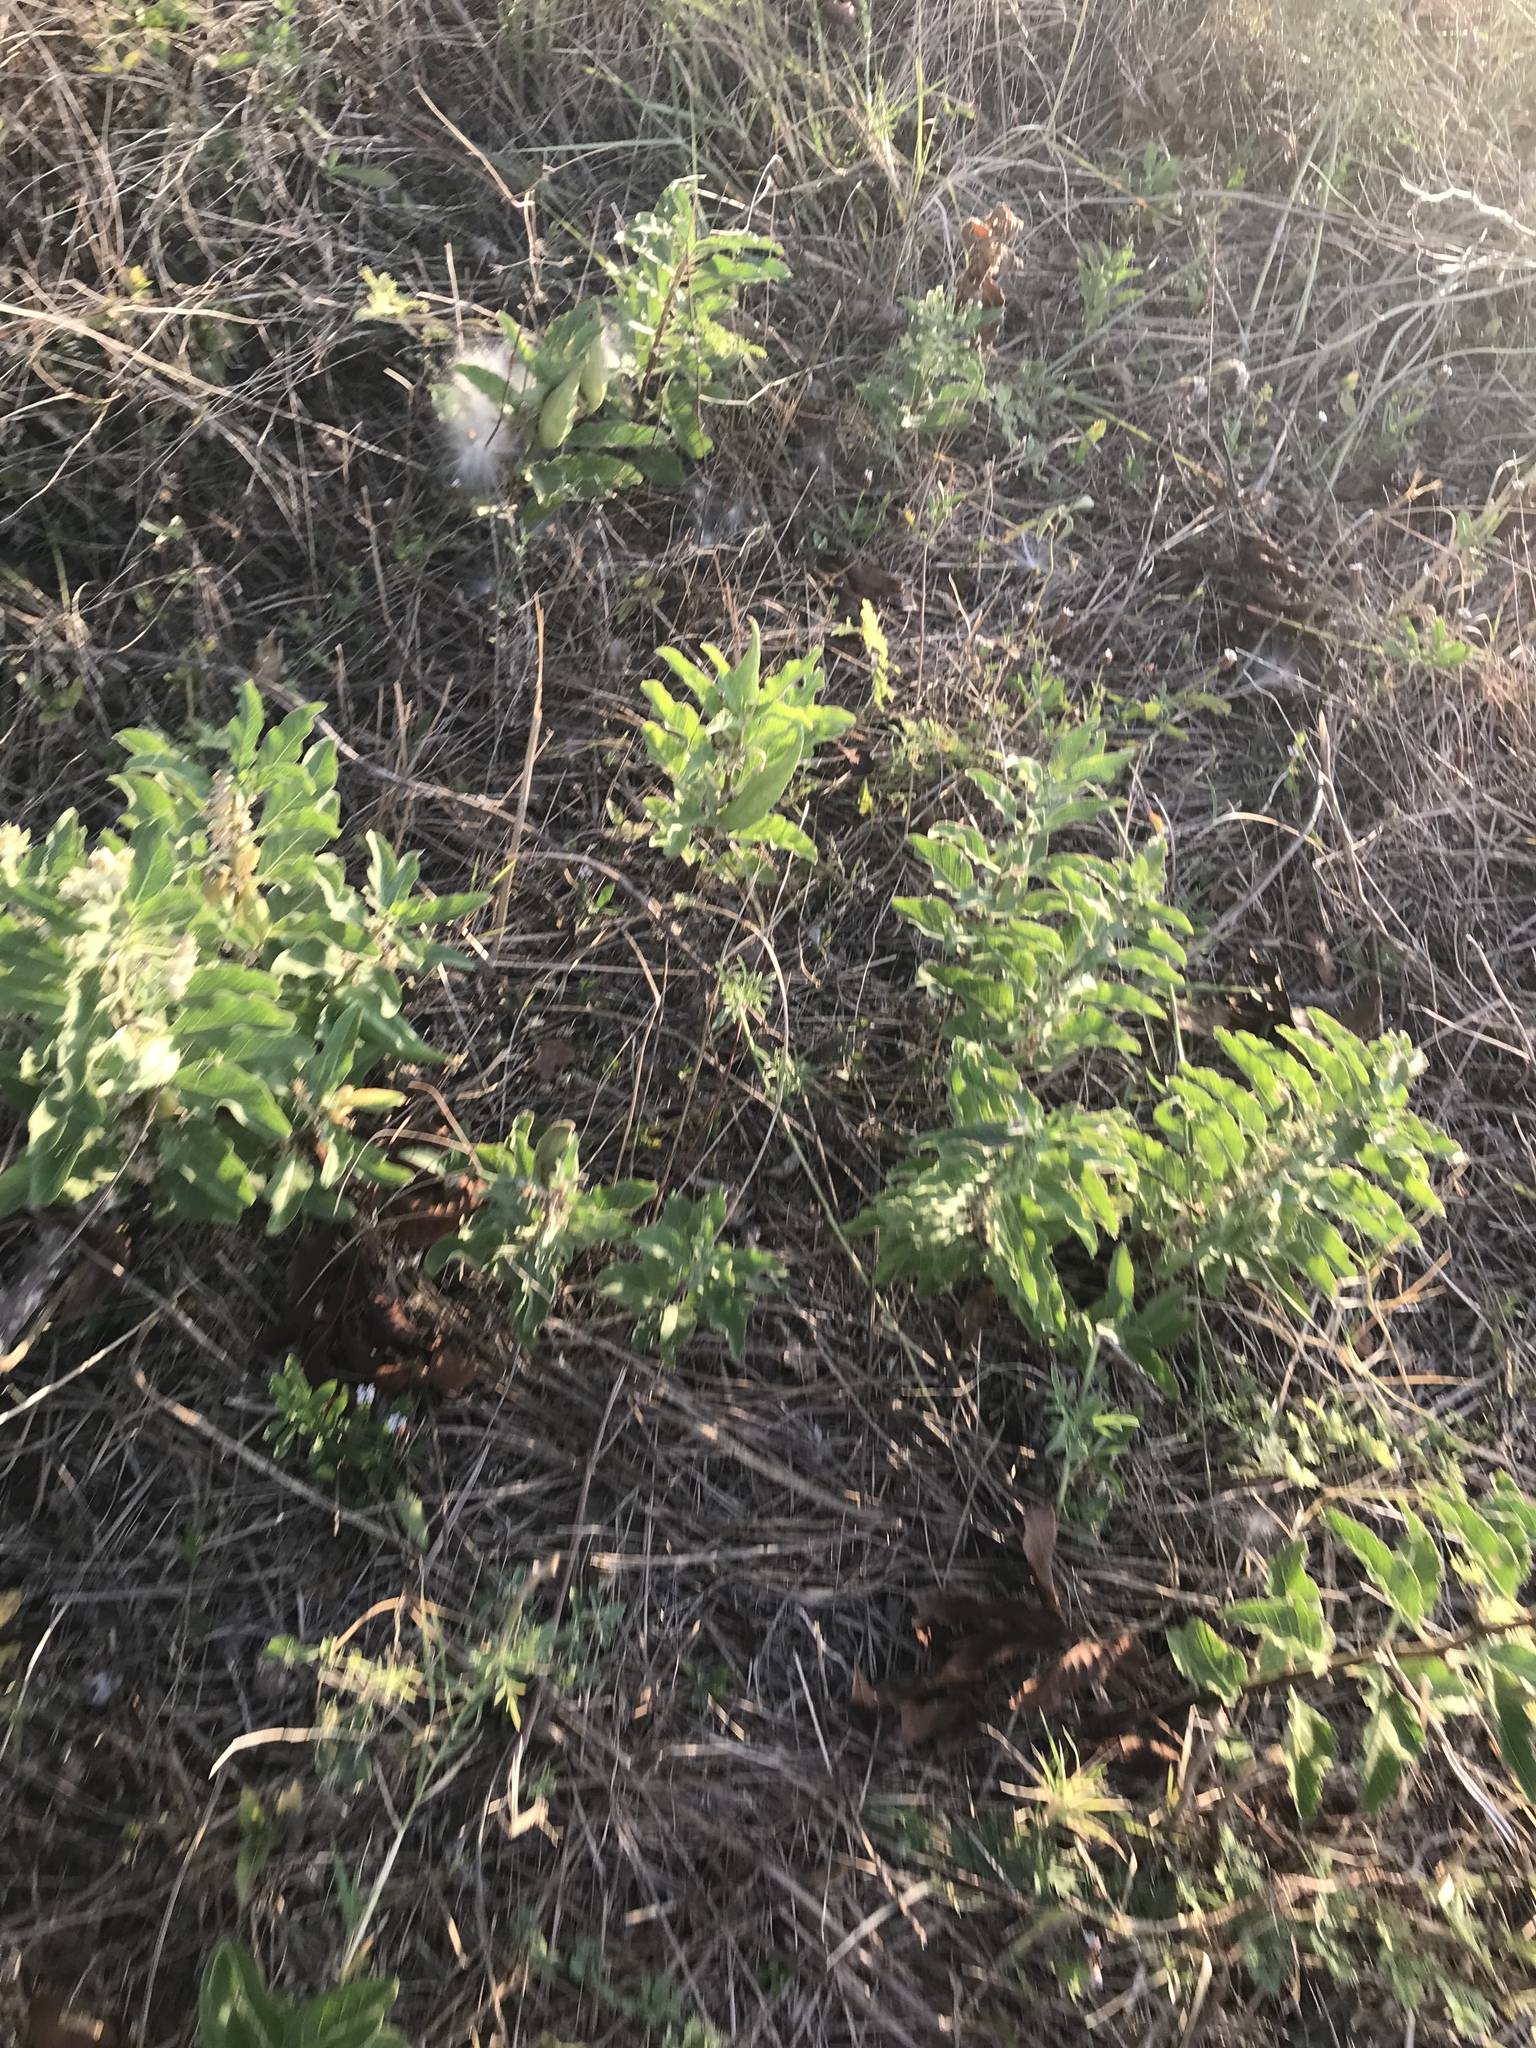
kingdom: Plantae
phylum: Tracheophyta
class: Magnoliopsida
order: Gentianales
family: Apocynaceae
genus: Asclepias
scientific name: Asclepias oenotheroides
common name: Zizotes milkweed
